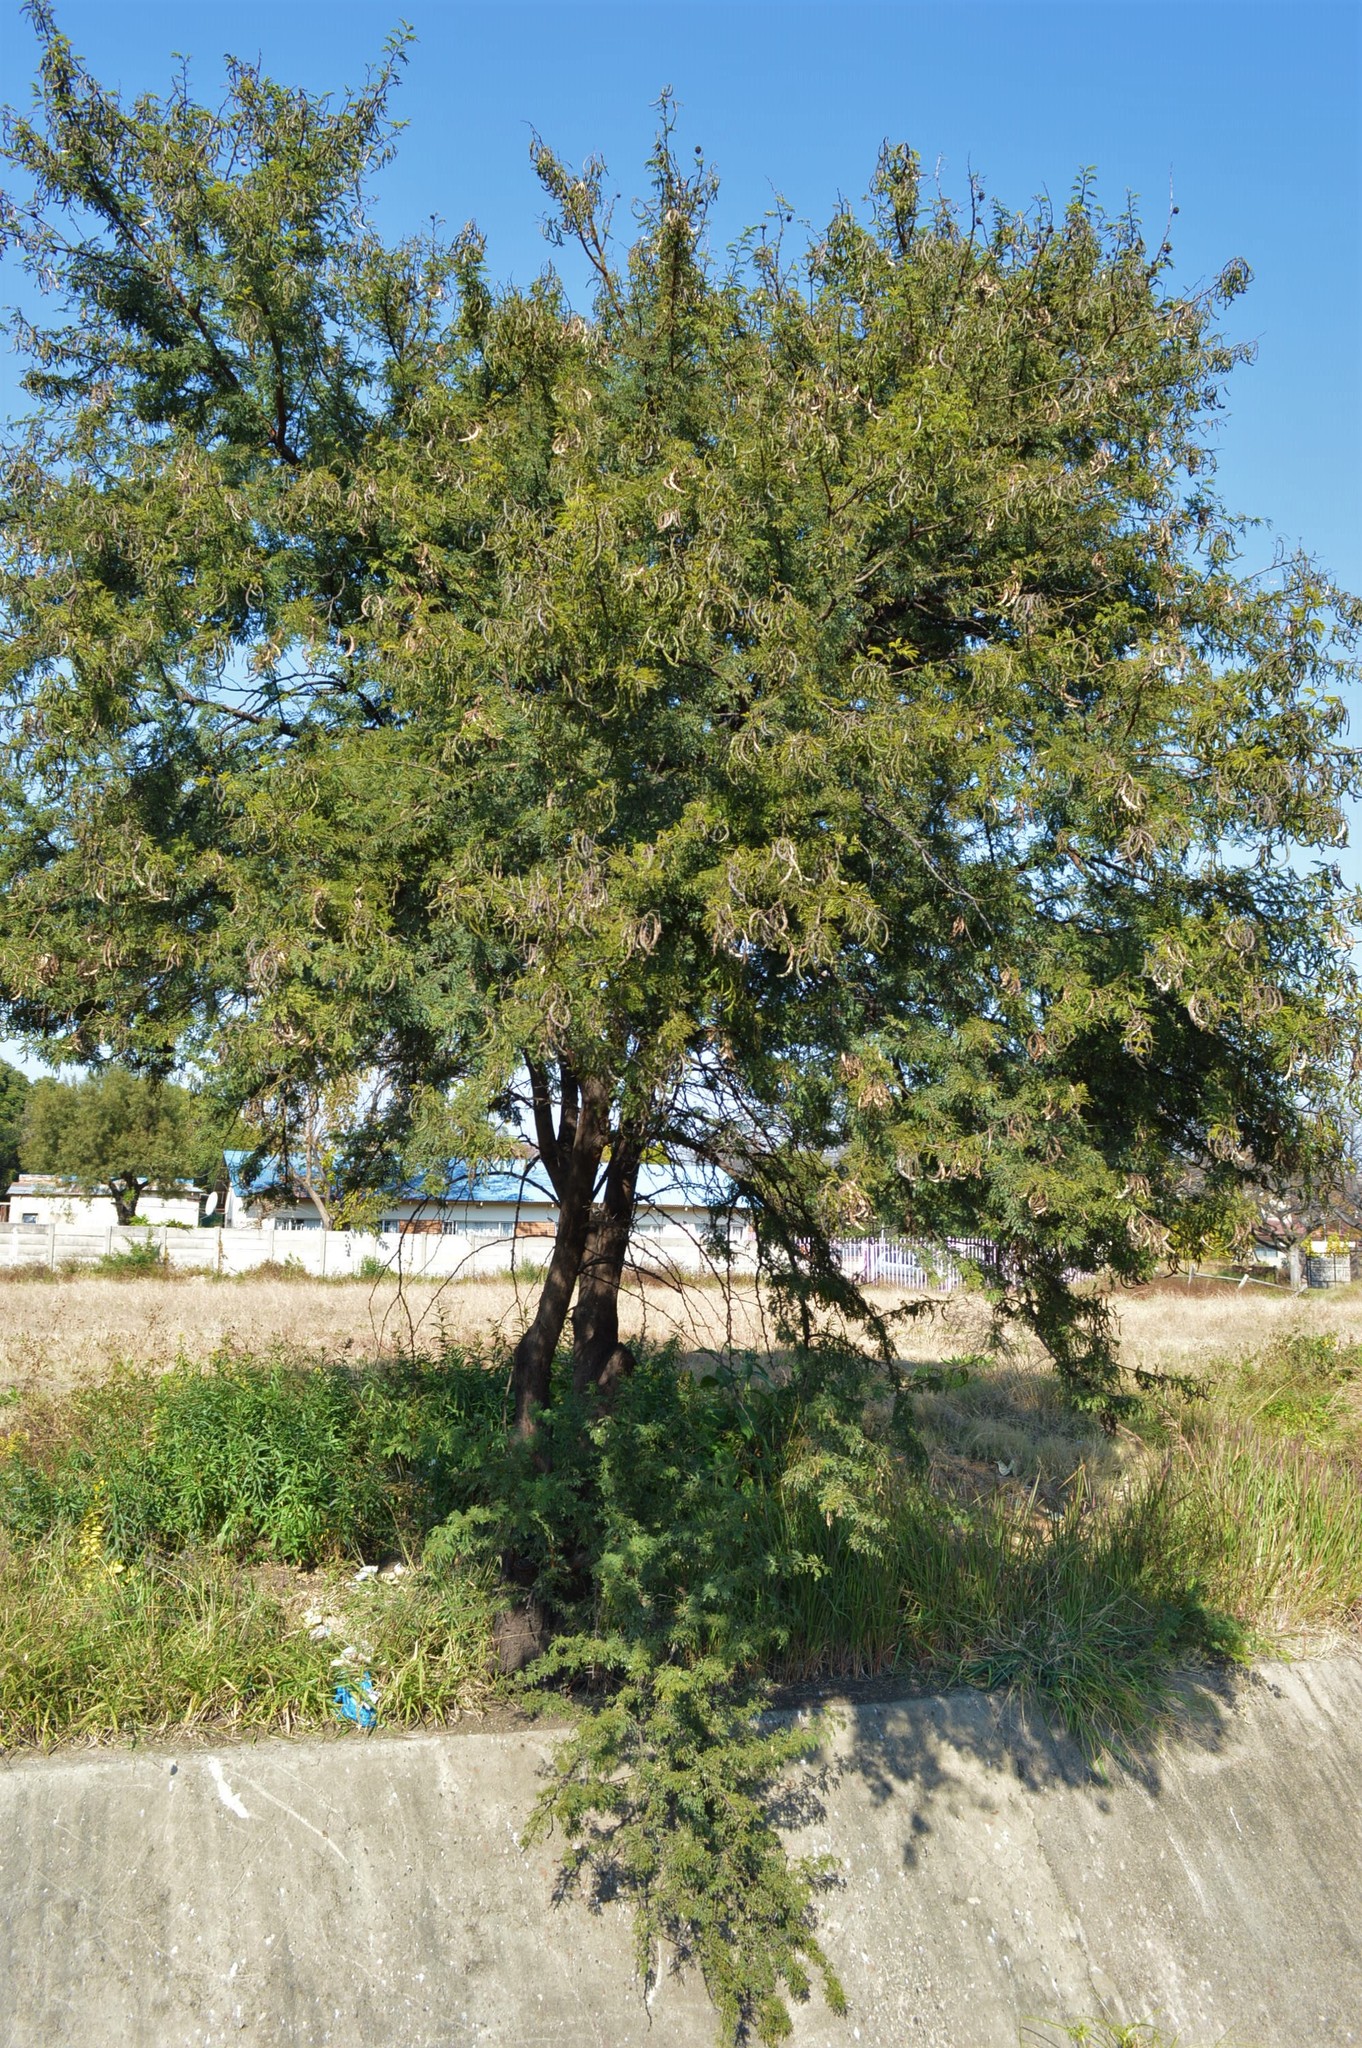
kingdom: Plantae
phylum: Tracheophyta
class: Magnoliopsida
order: Fabales
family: Fabaceae
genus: Vachellia
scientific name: Vachellia karroo
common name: Sweet thorn
